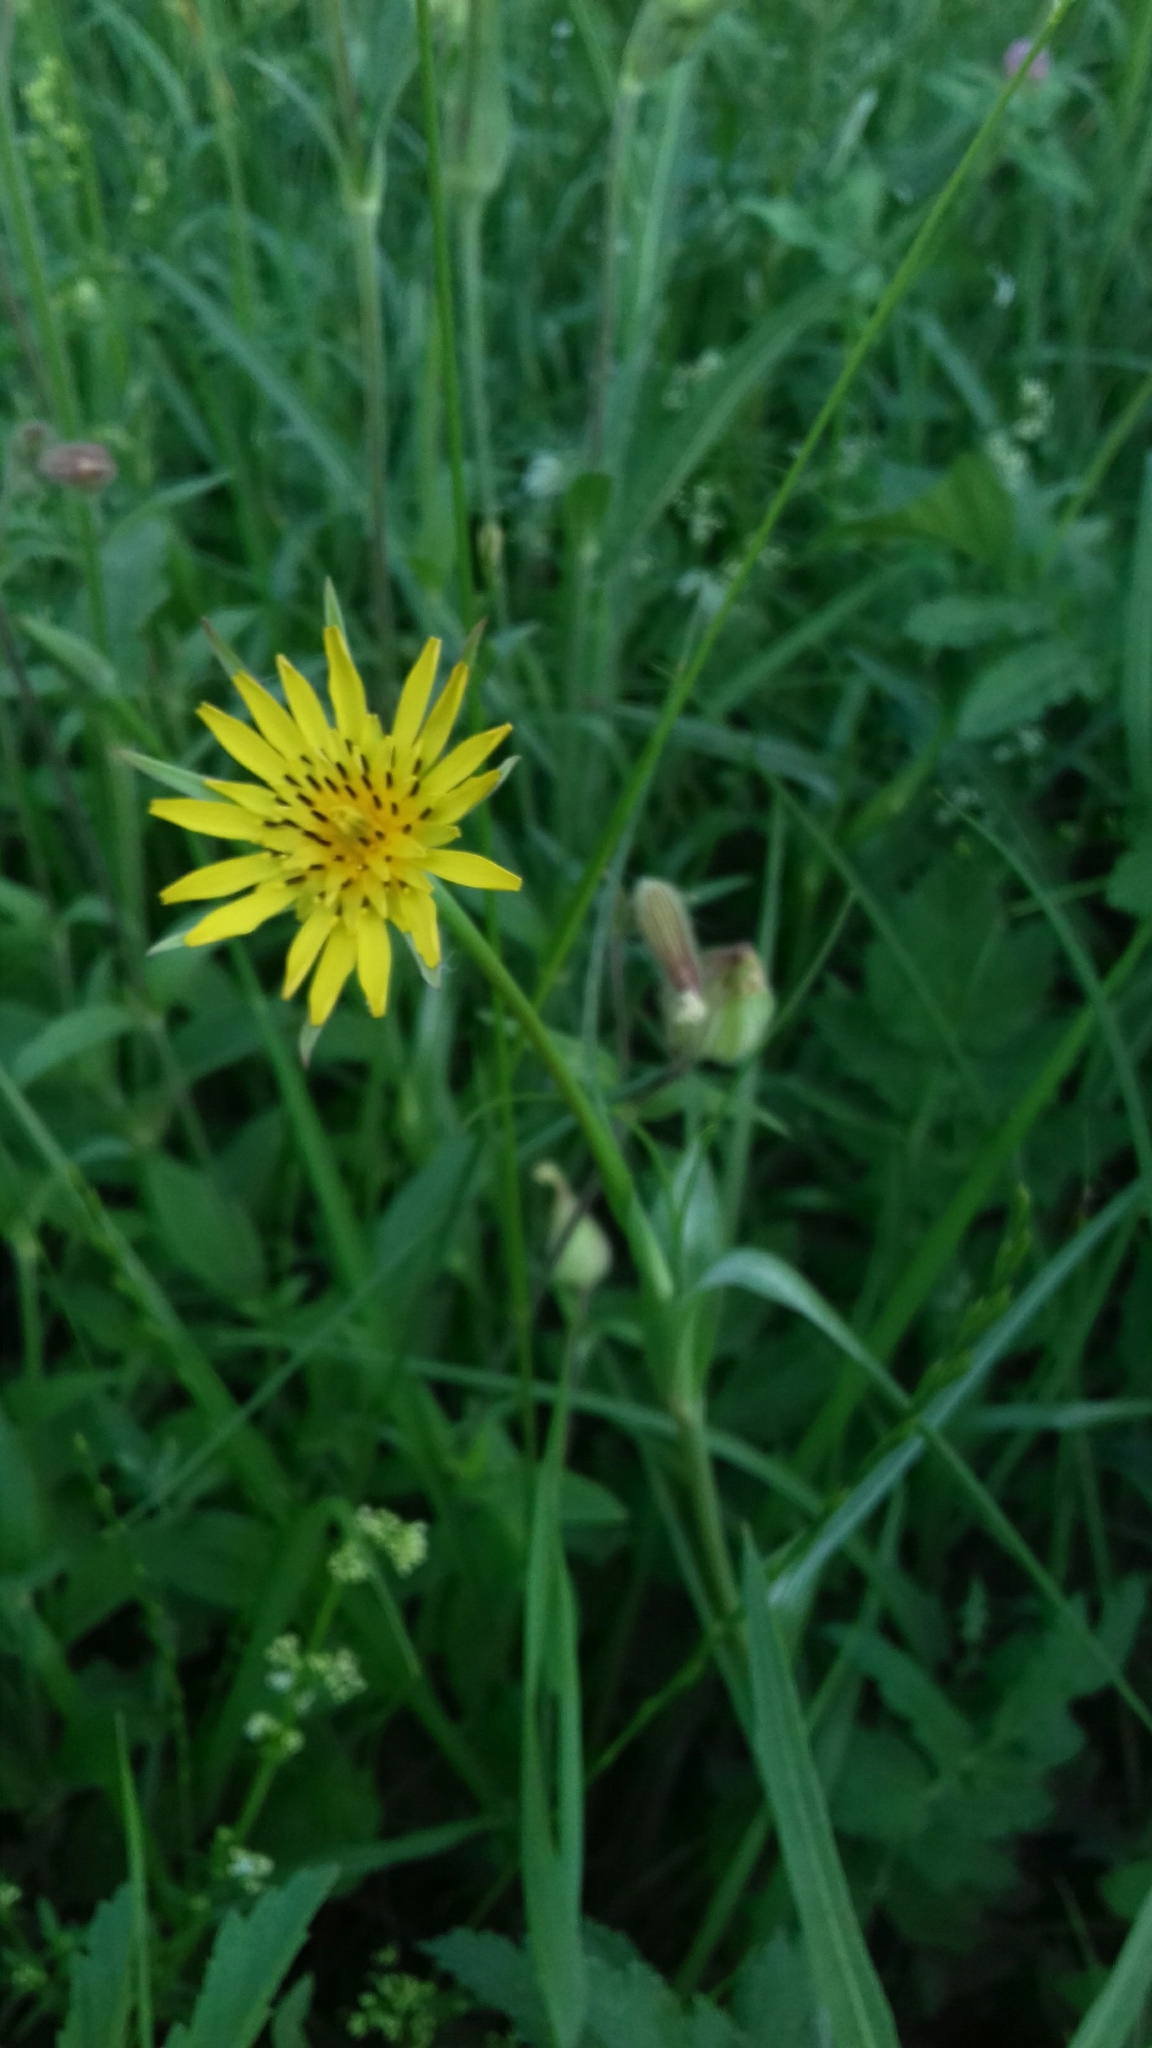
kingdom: Plantae
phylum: Tracheophyta
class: Magnoliopsida
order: Asterales
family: Asteraceae
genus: Tragopogon
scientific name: Tragopogon pratensis
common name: Goat's-beard
